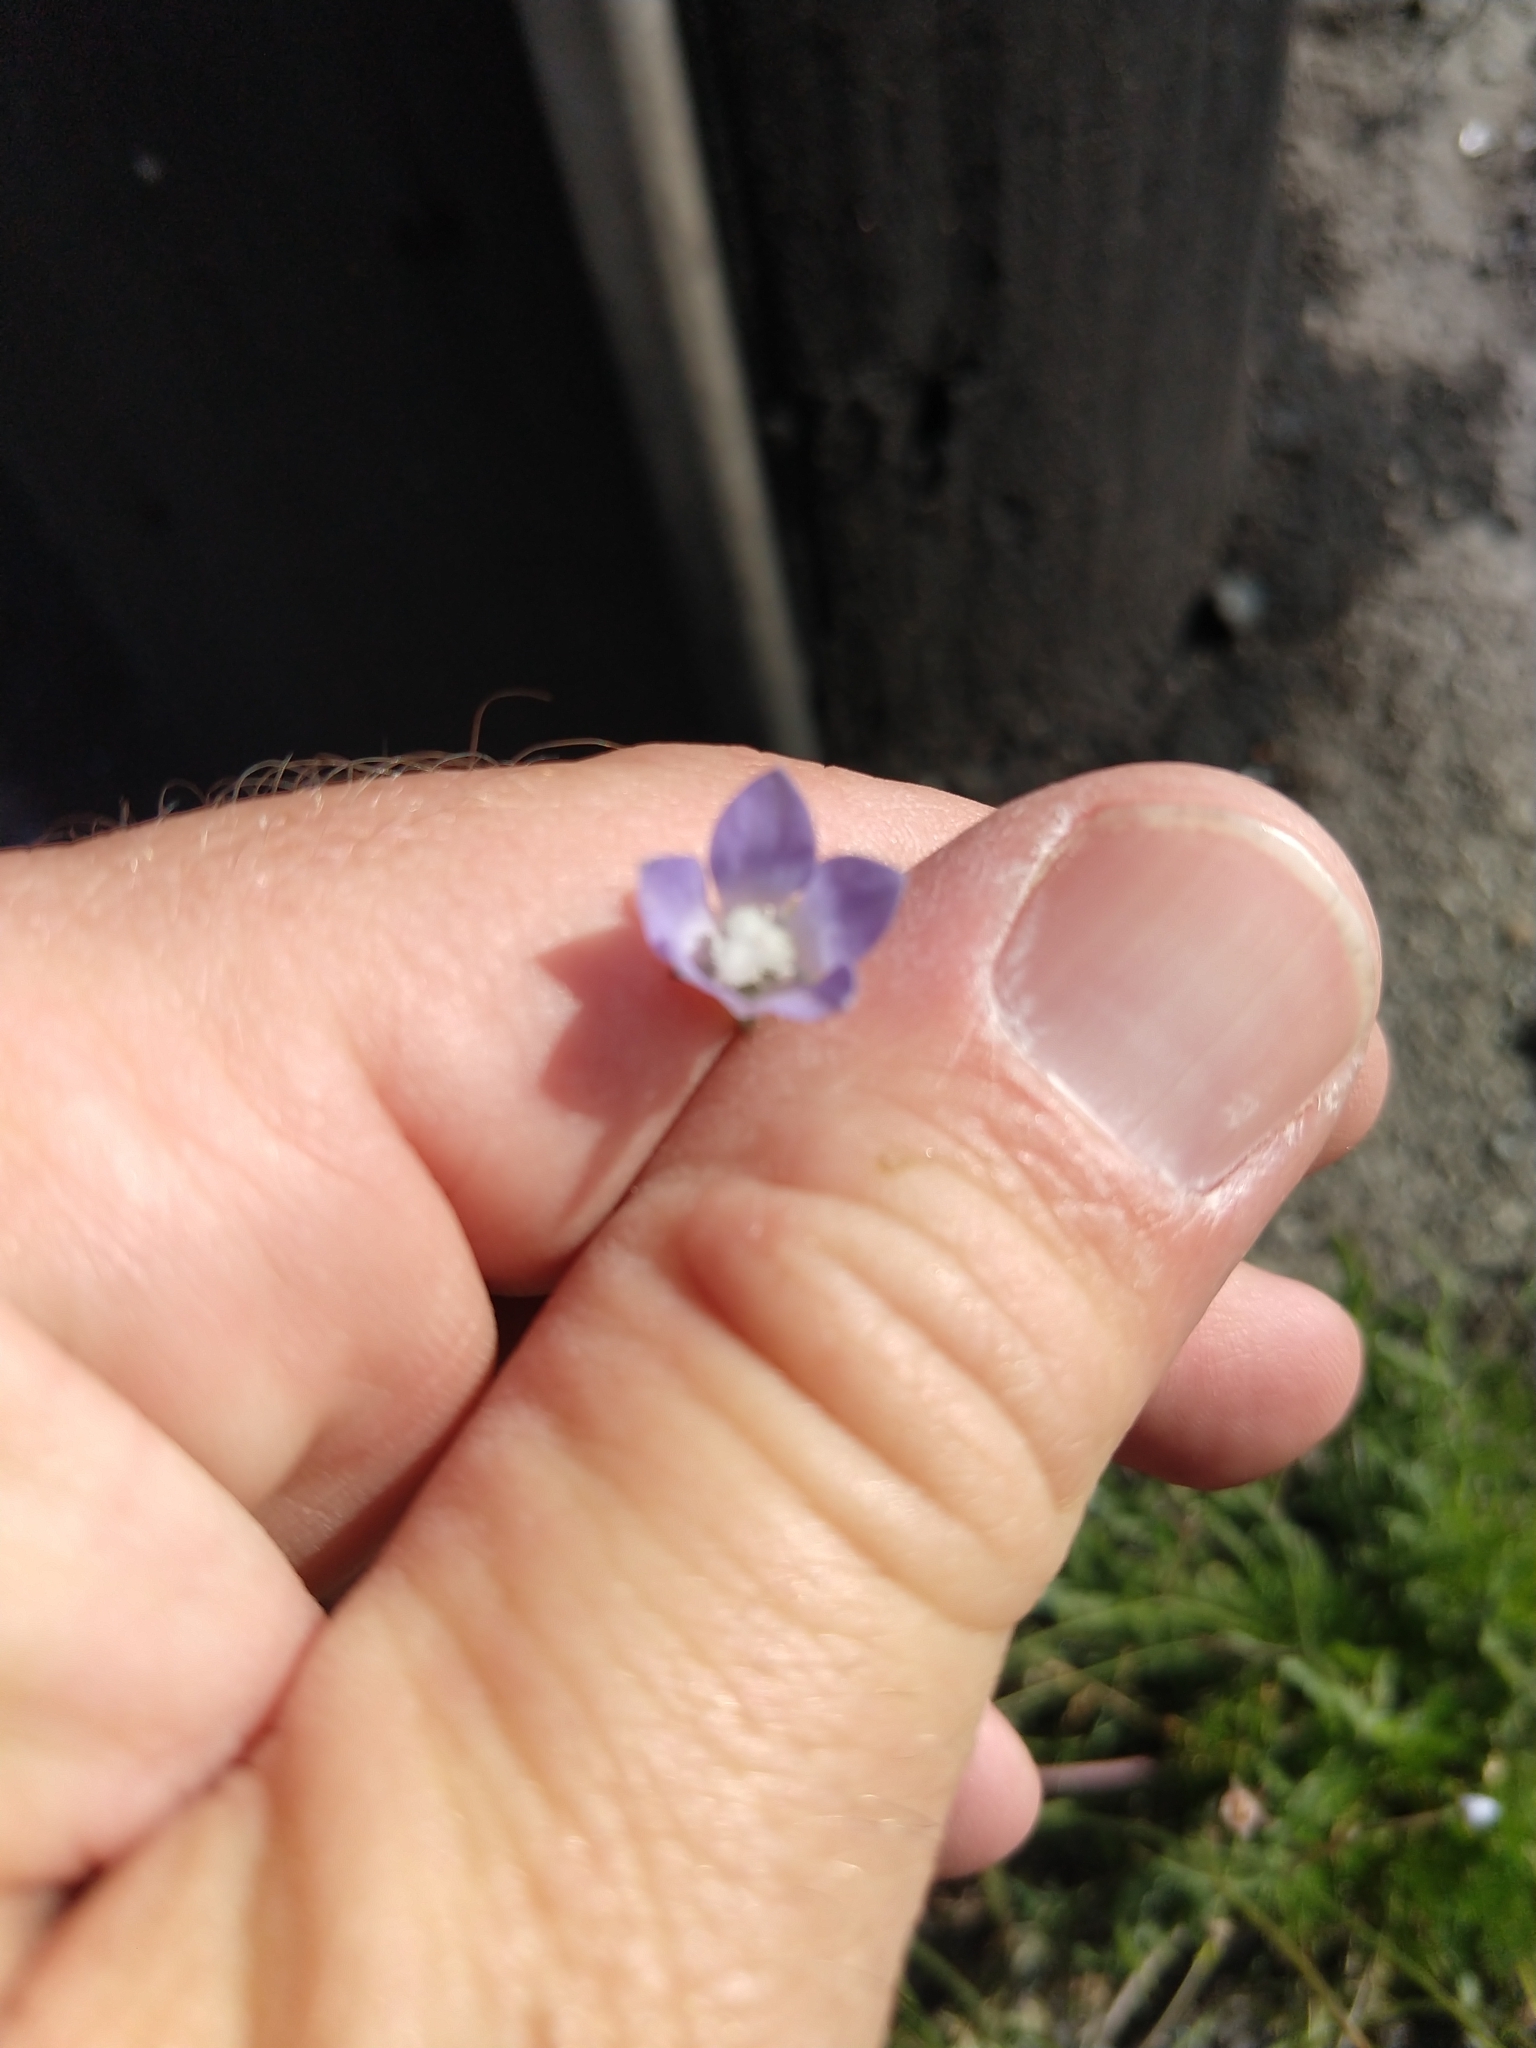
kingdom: Plantae
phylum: Tracheophyta
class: Magnoliopsida
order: Asterales
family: Campanulaceae
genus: Wahlenbergia
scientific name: Wahlenbergia marginata
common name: Southern rockbell
